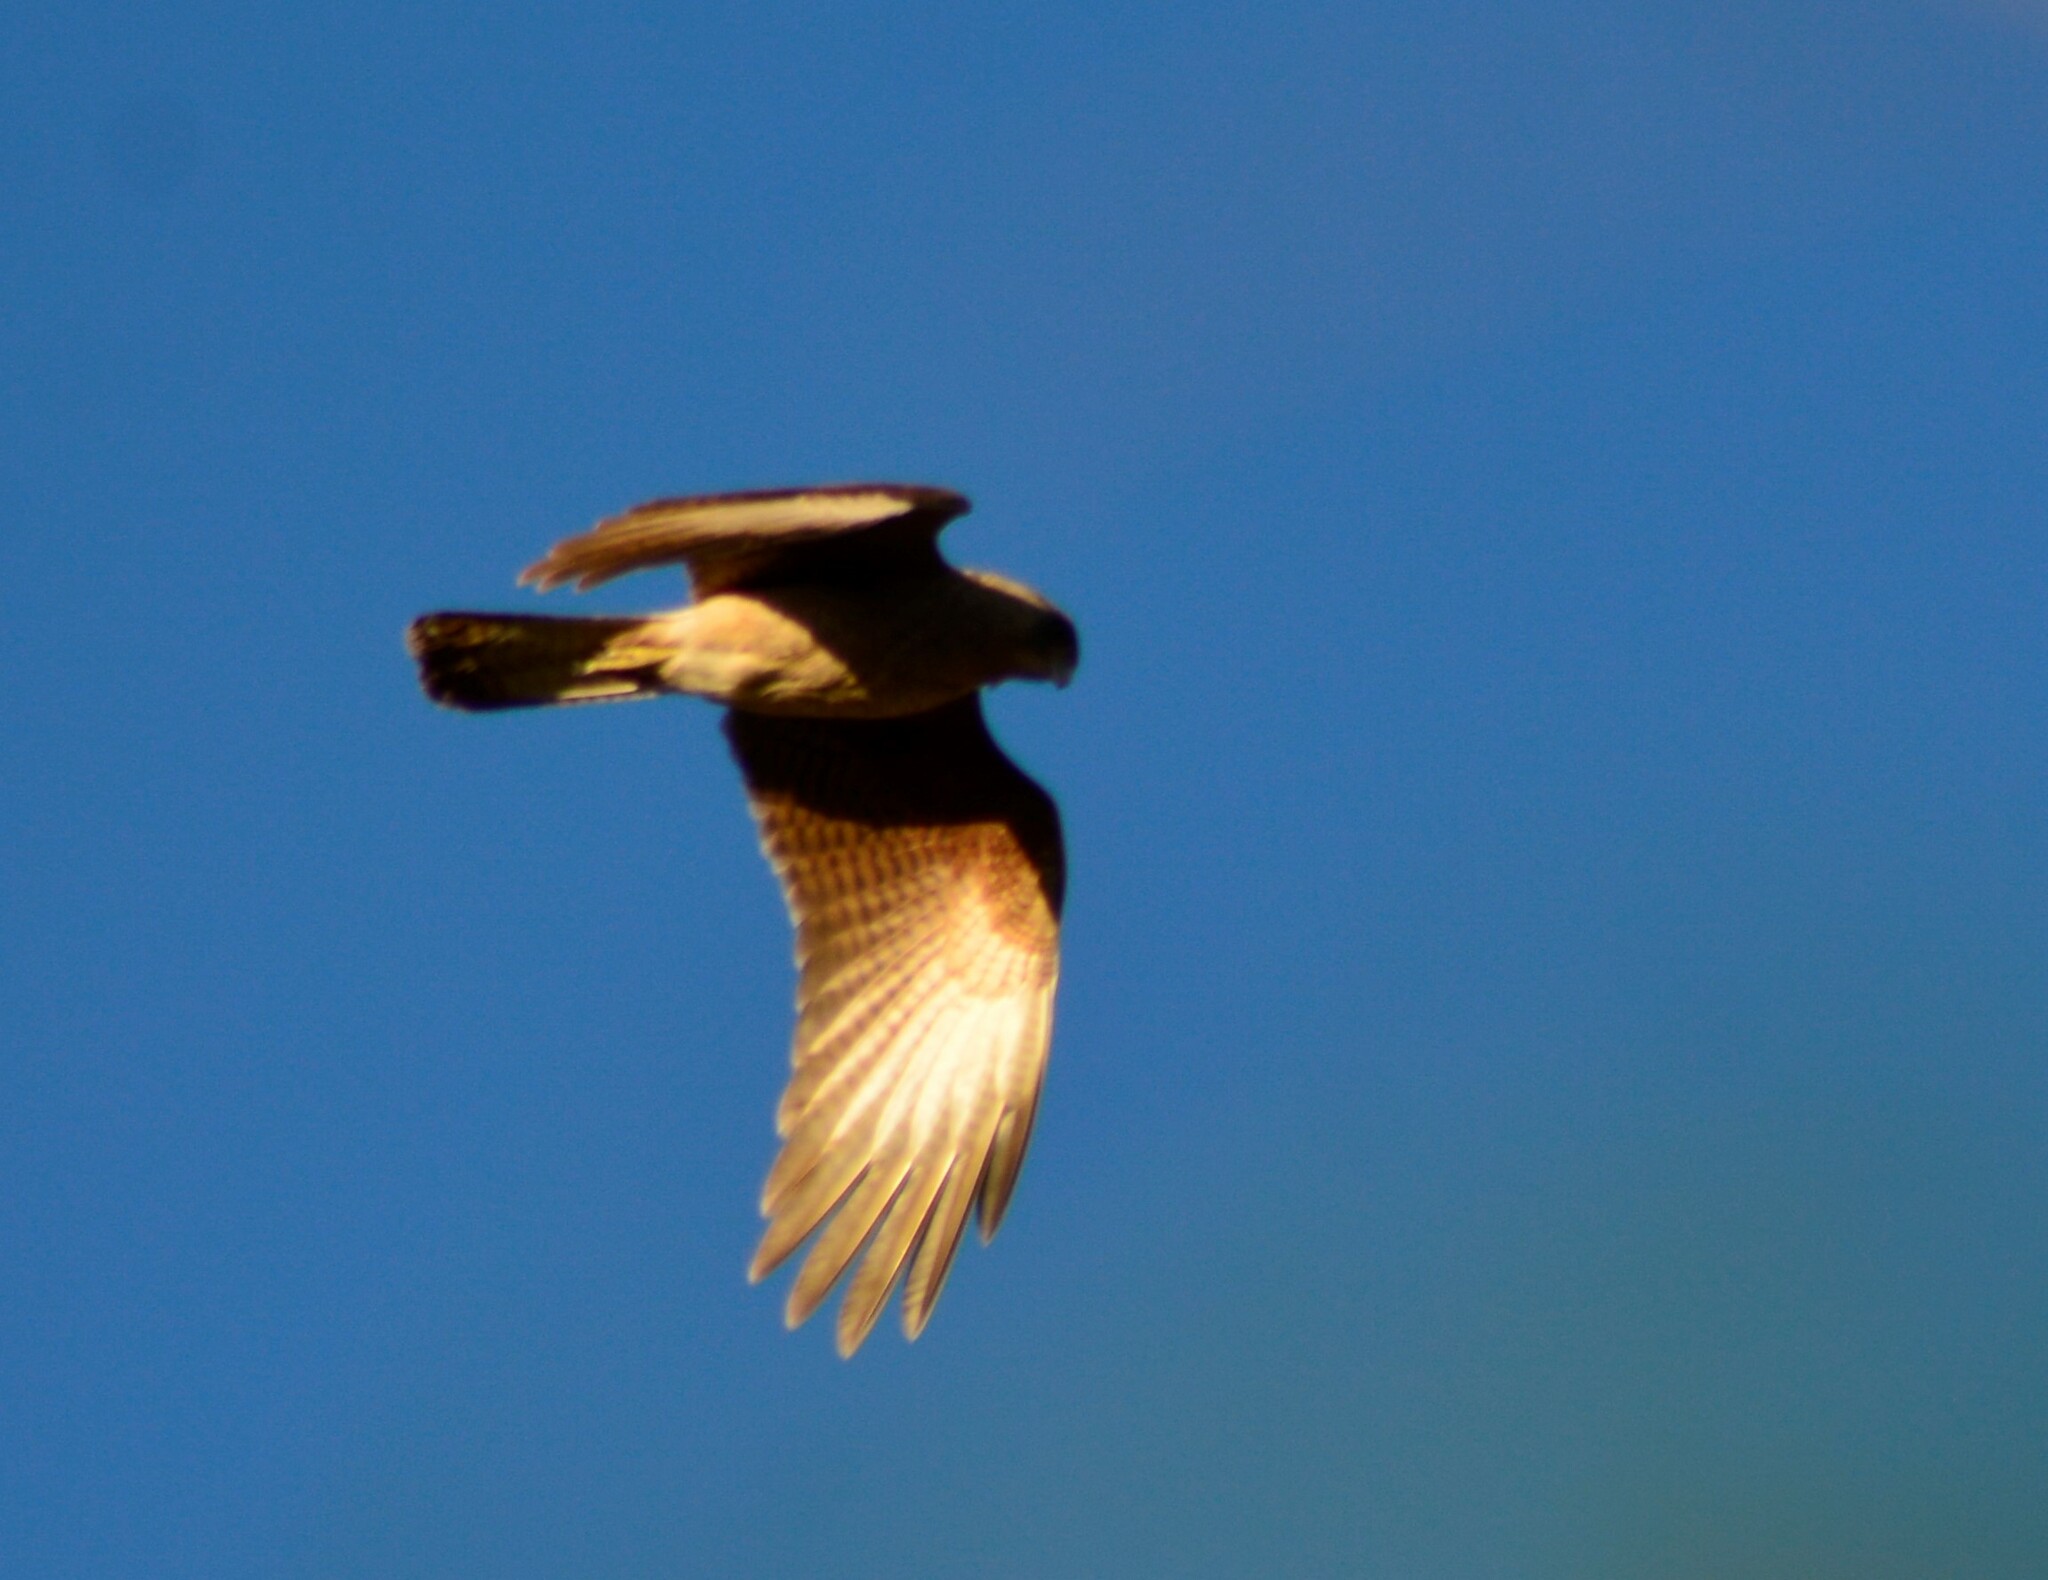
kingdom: Animalia
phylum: Chordata
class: Aves
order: Falconiformes
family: Falconidae
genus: Daptrius
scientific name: Daptrius
